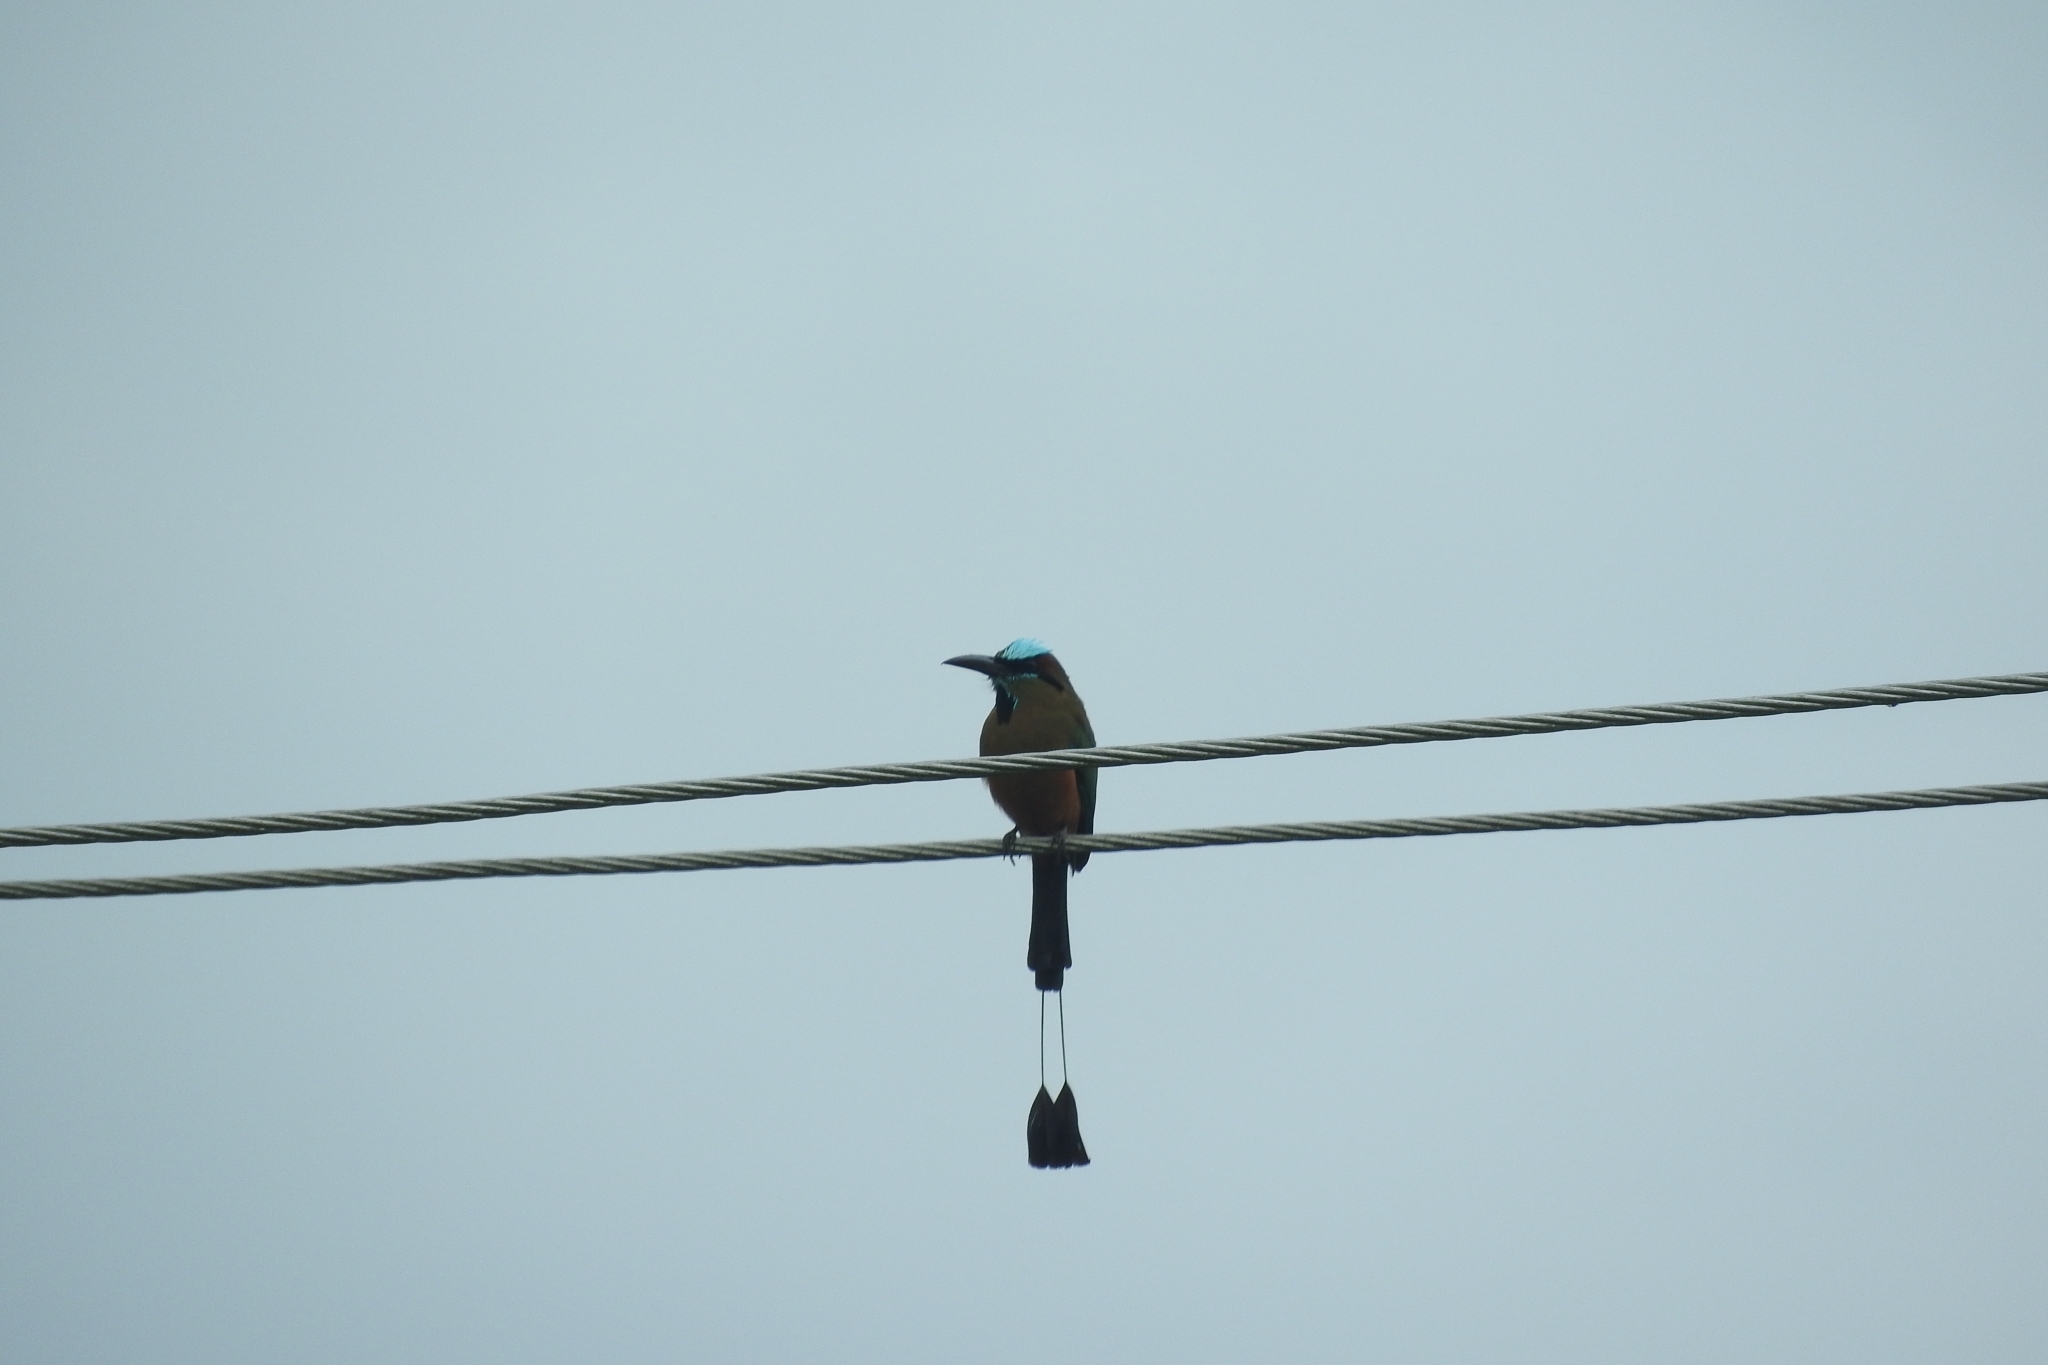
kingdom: Animalia
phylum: Chordata
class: Aves
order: Coraciiformes
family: Momotidae
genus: Eumomota
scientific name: Eumomota superciliosa
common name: Turquoise-browed motmot
